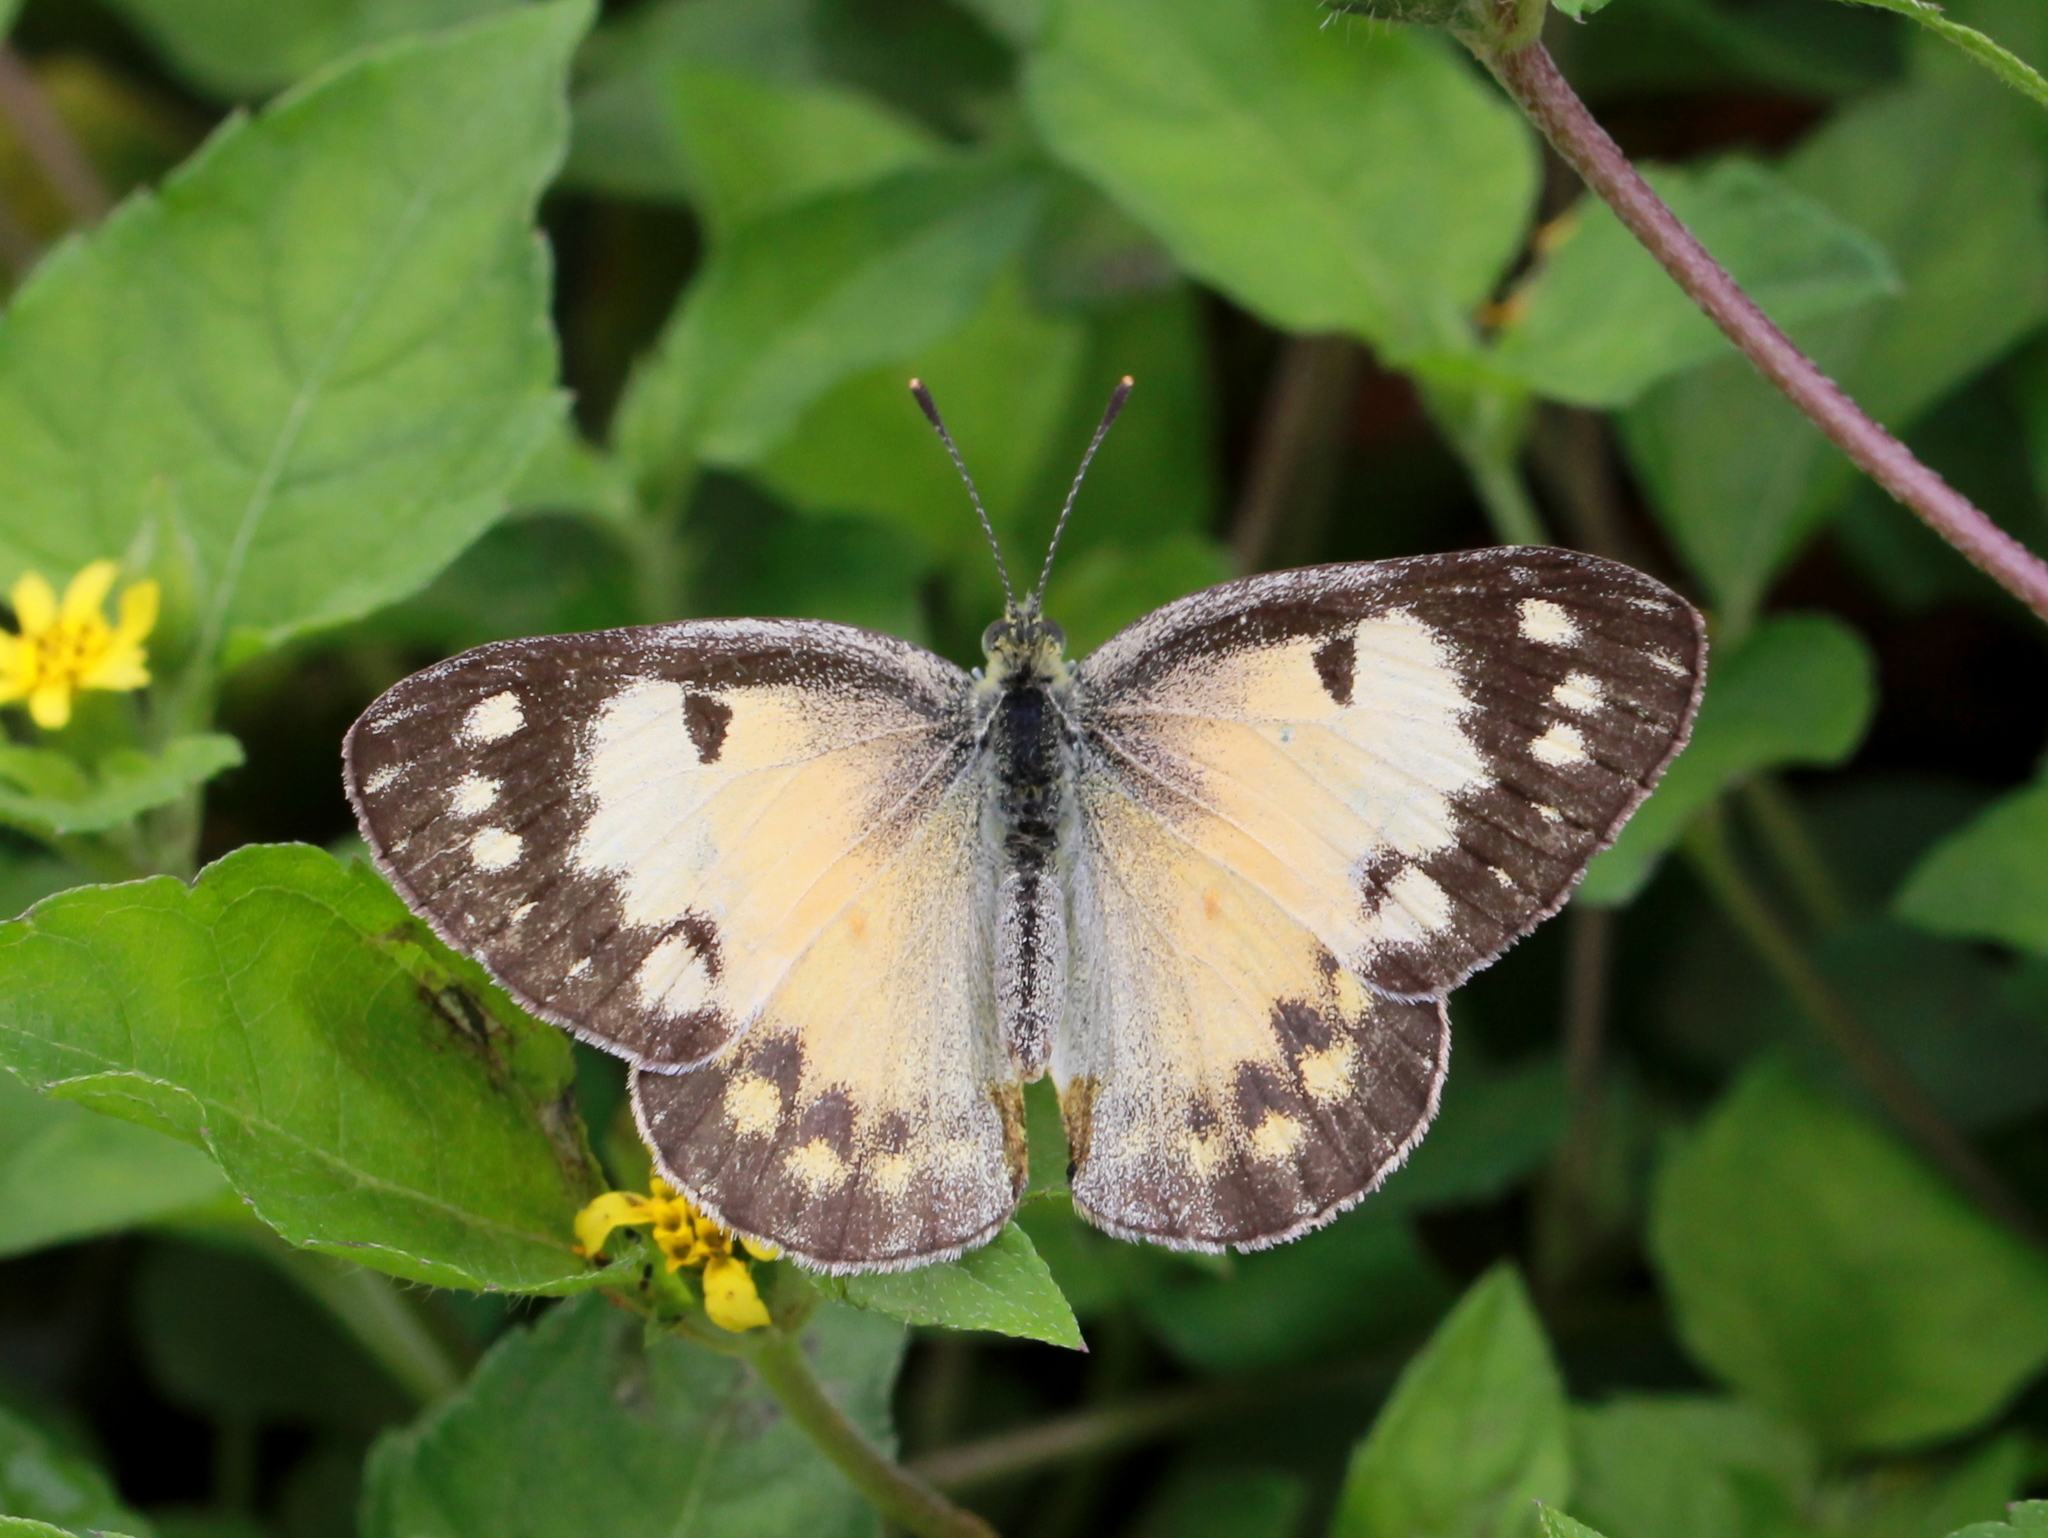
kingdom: Animalia
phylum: Arthropoda
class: Insecta
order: Lepidoptera
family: Pieridae
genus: Colotis
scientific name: Colotis amata
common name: Small salmon arab
